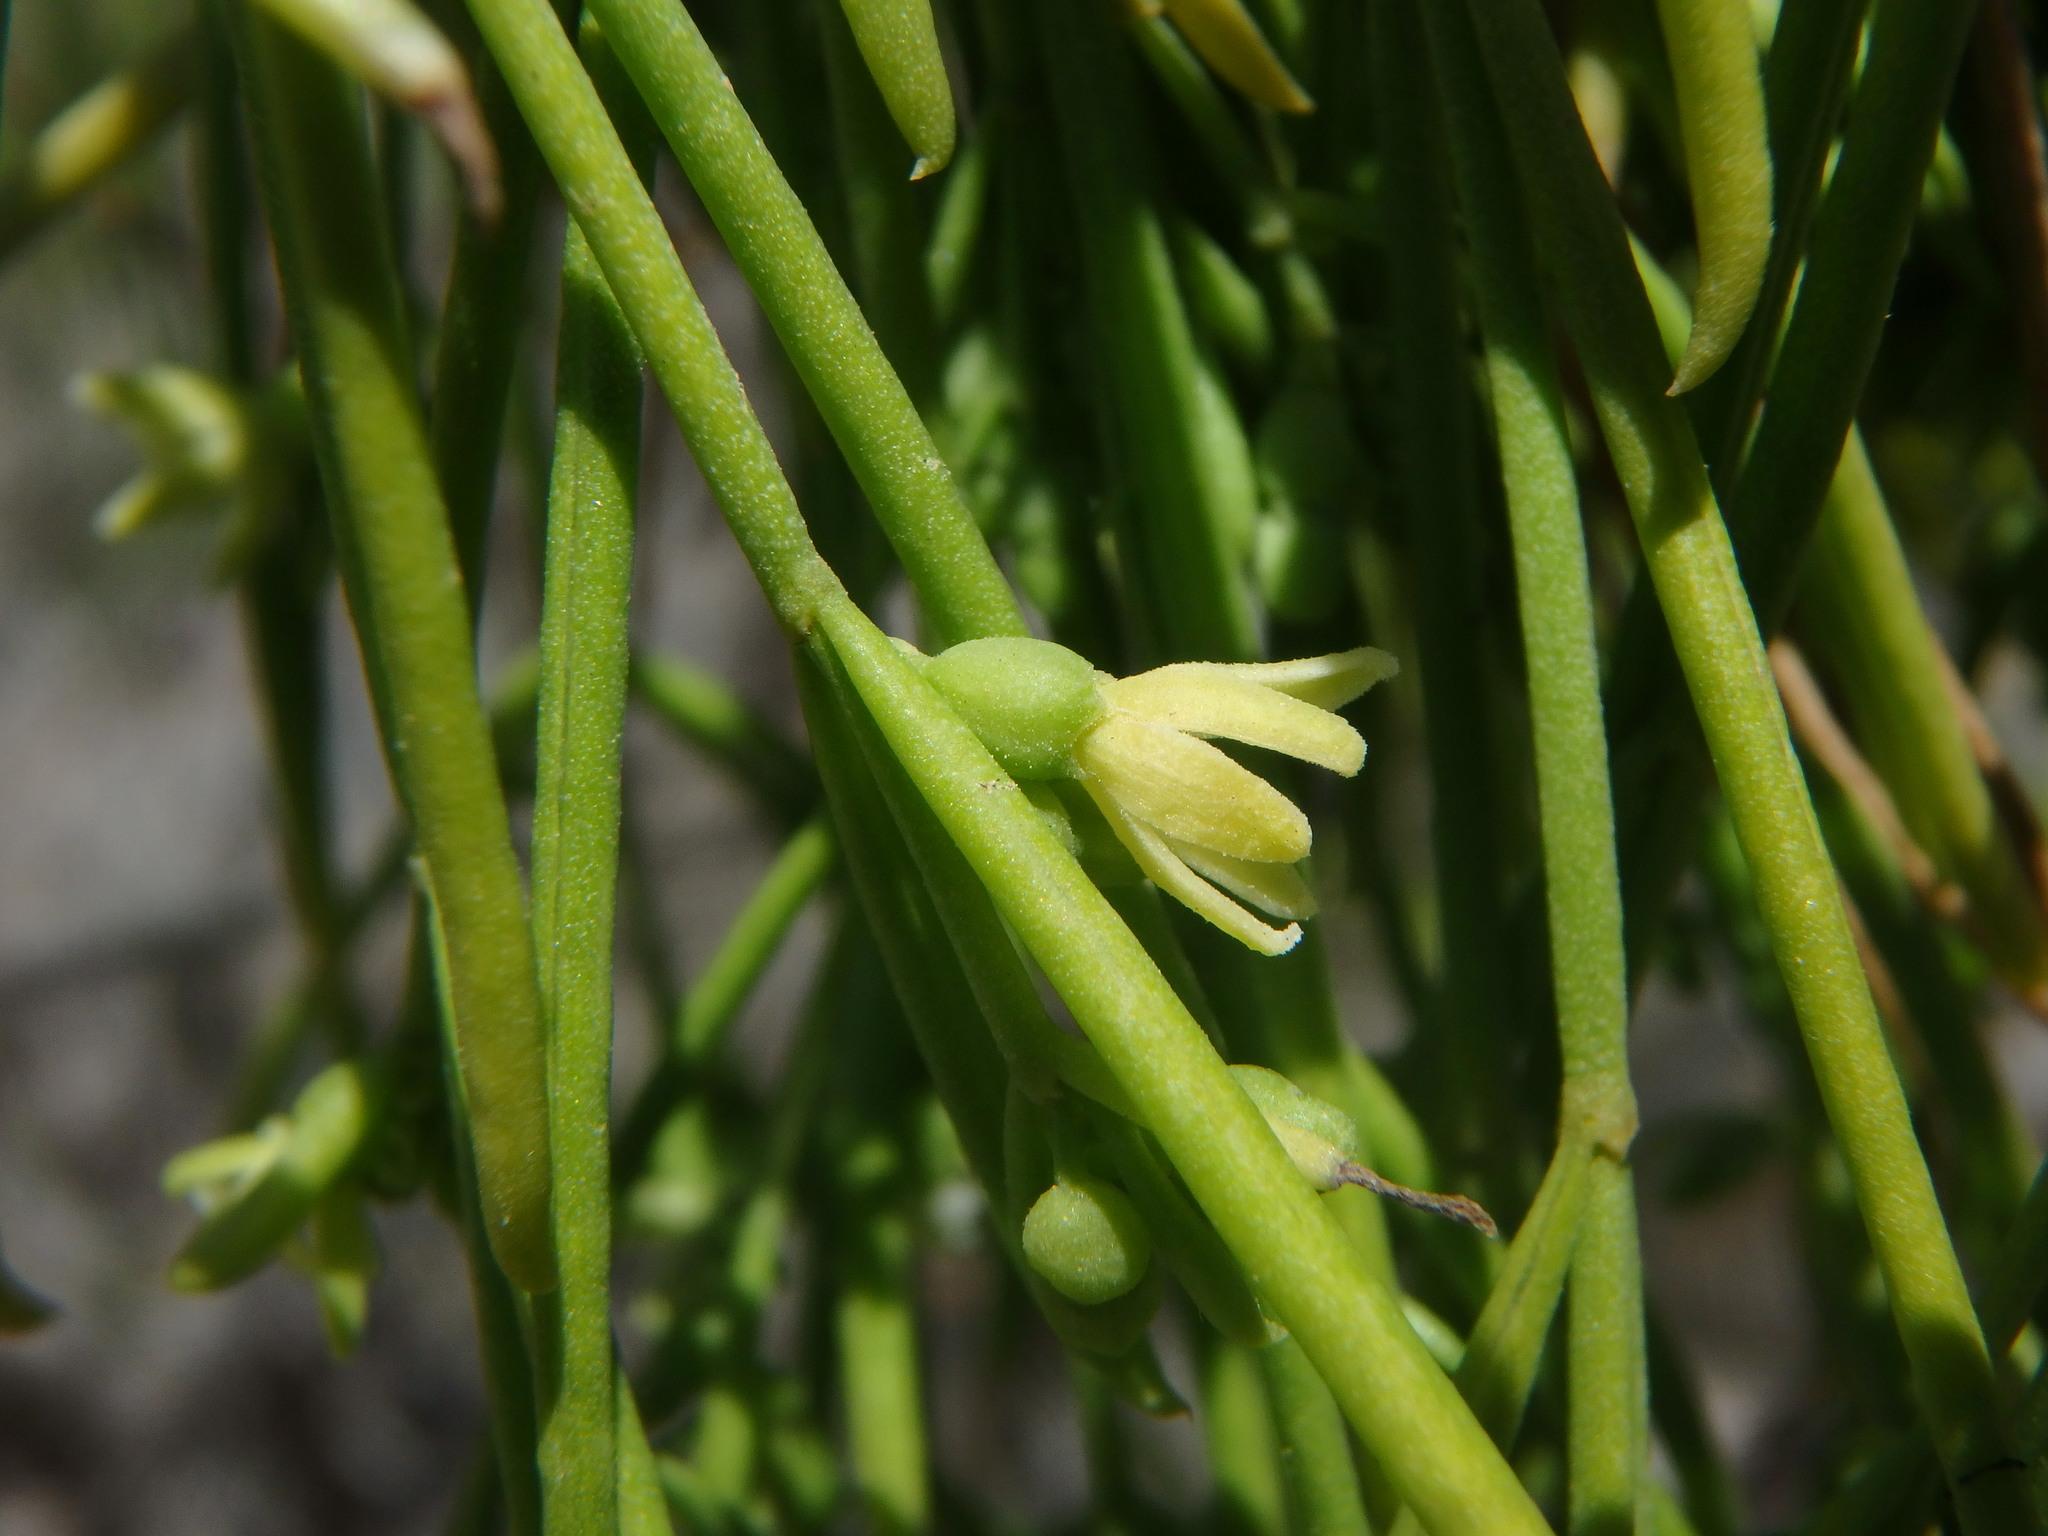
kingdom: Plantae
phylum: Tracheophyta
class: Magnoliopsida
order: Gentianales
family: Rubiaceae
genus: Plocama
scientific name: Plocama pendula
